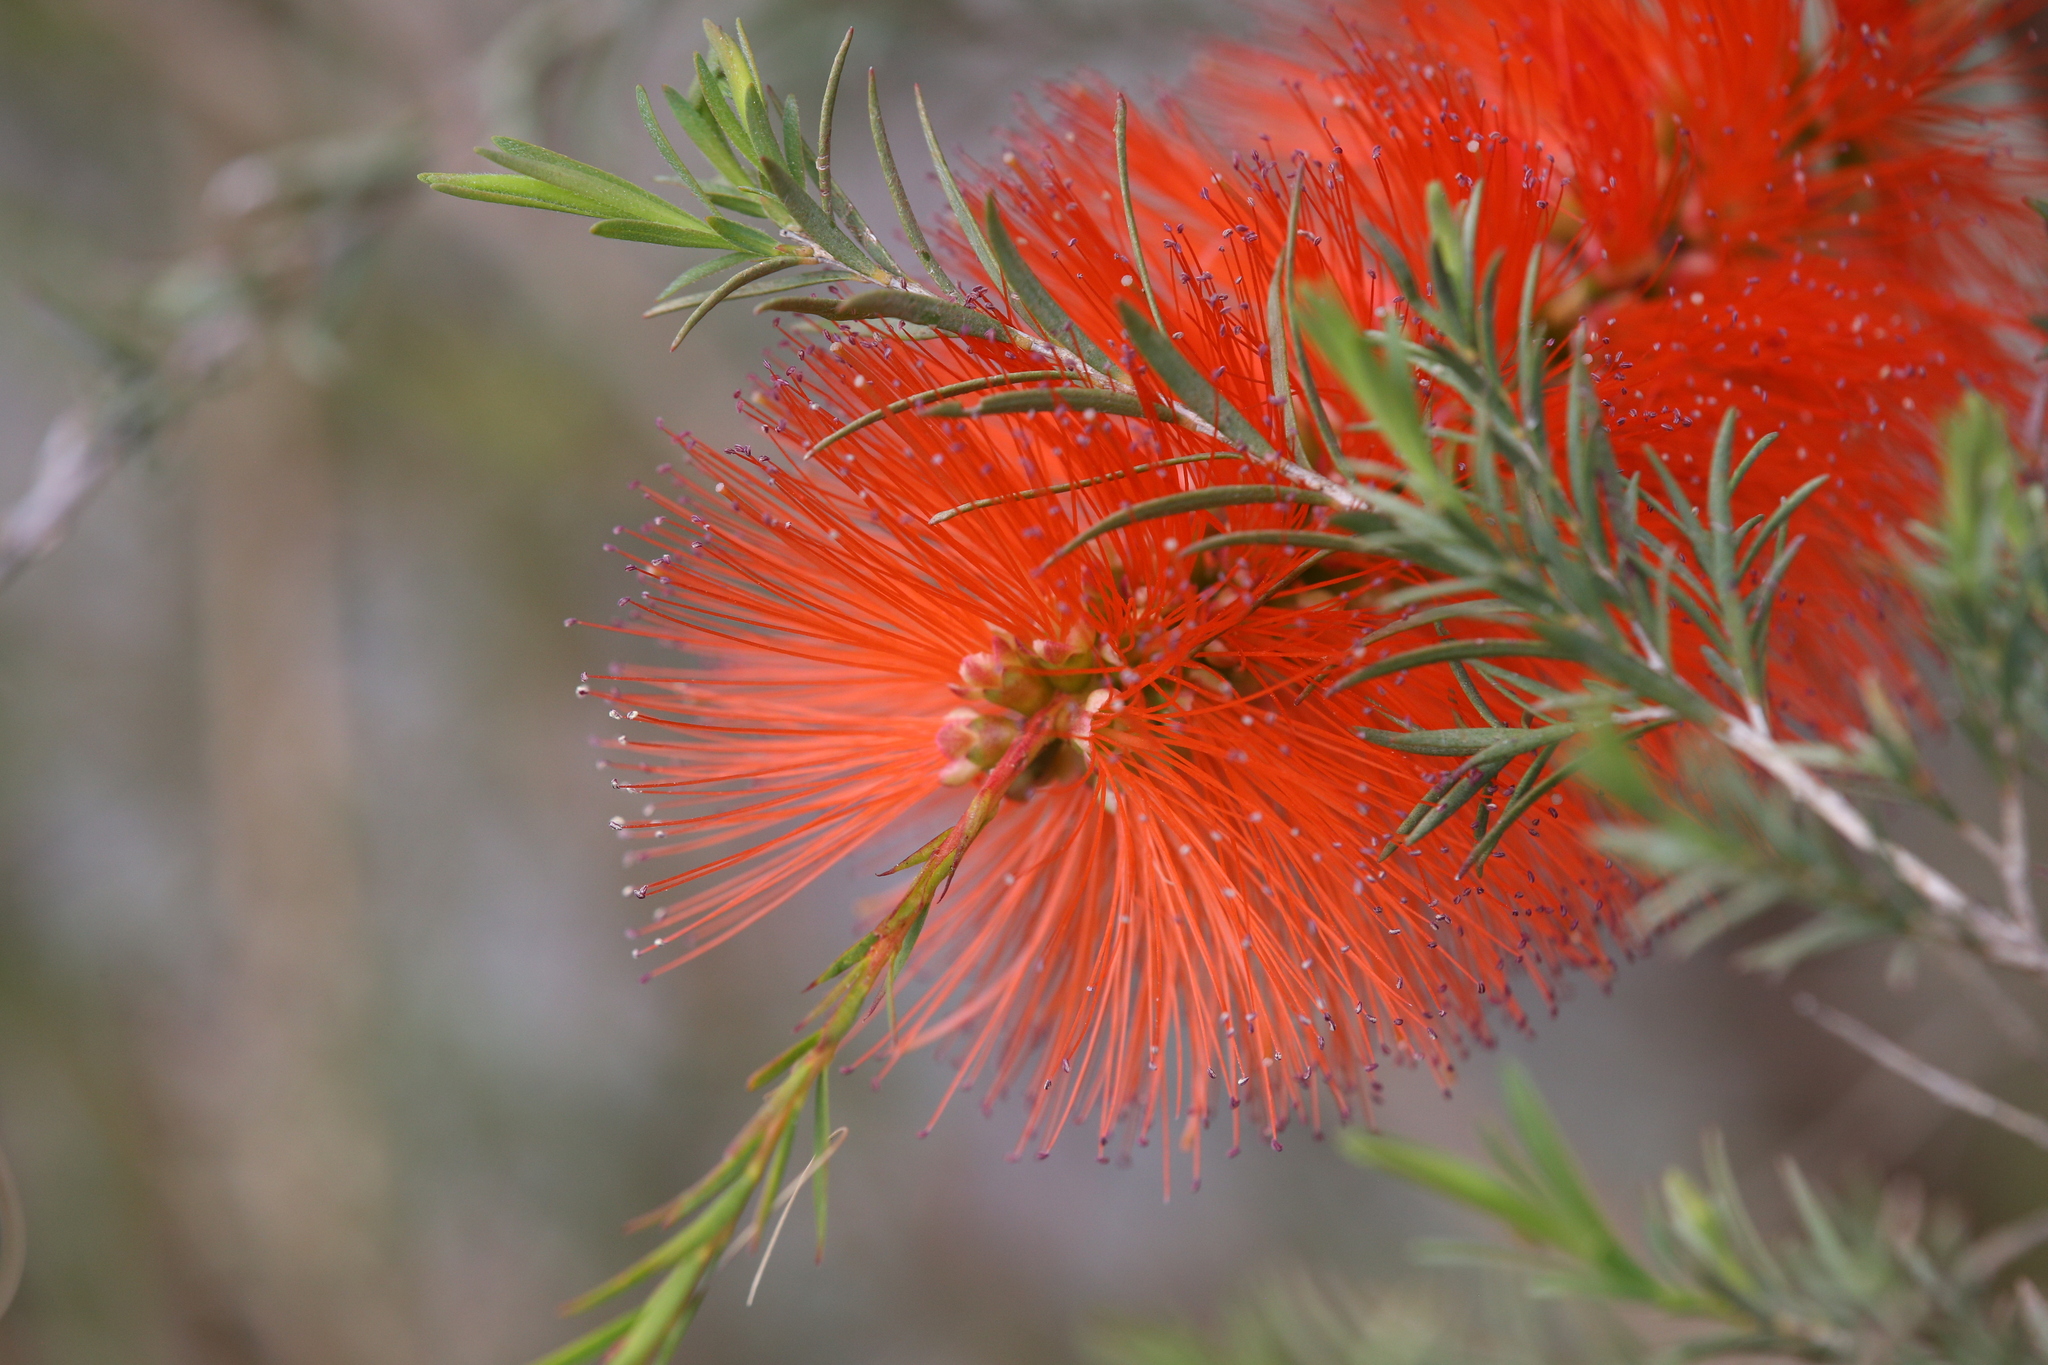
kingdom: Plantae
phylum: Tracheophyta
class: Magnoliopsida
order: Myrtales
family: Myrtaceae
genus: Melaleuca
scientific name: Melaleuca lateritia
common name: Robin red-breast
